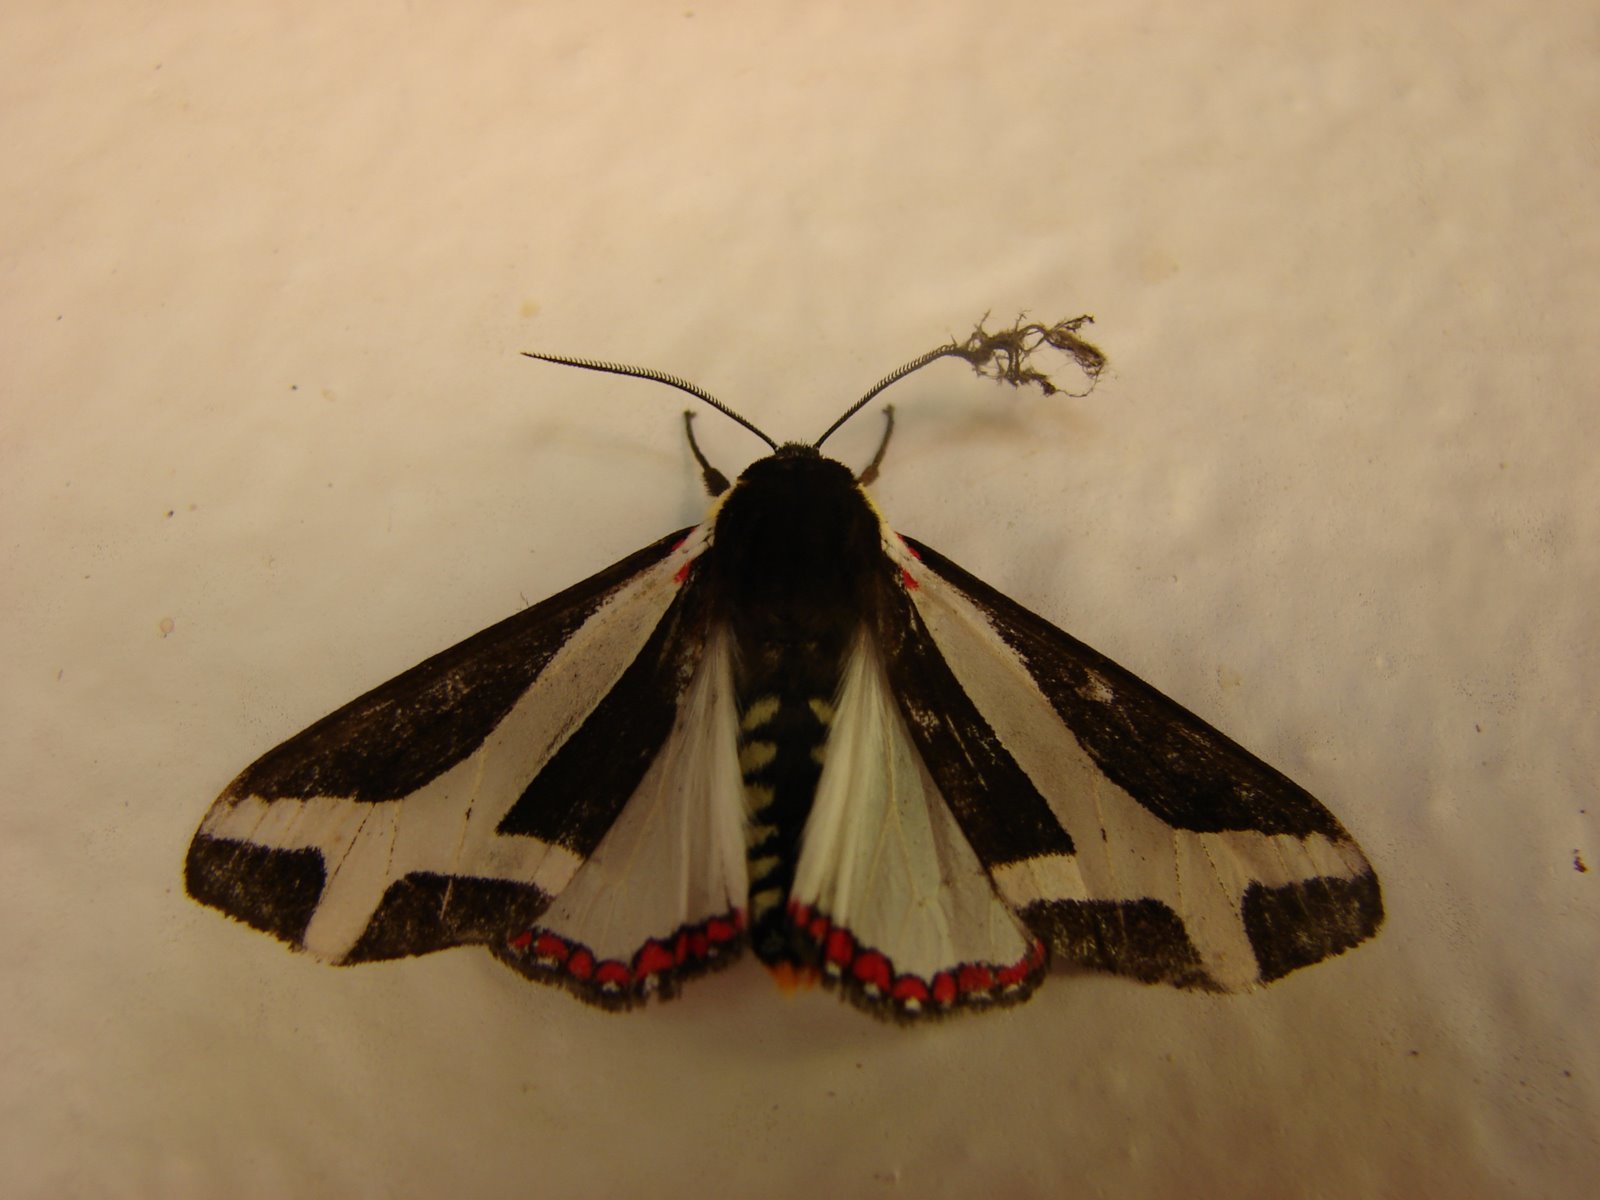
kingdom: Animalia
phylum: Arthropoda
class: Insecta
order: Lepidoptera
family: Erebidae
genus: Dysschema
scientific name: Dysschema sacrifica
